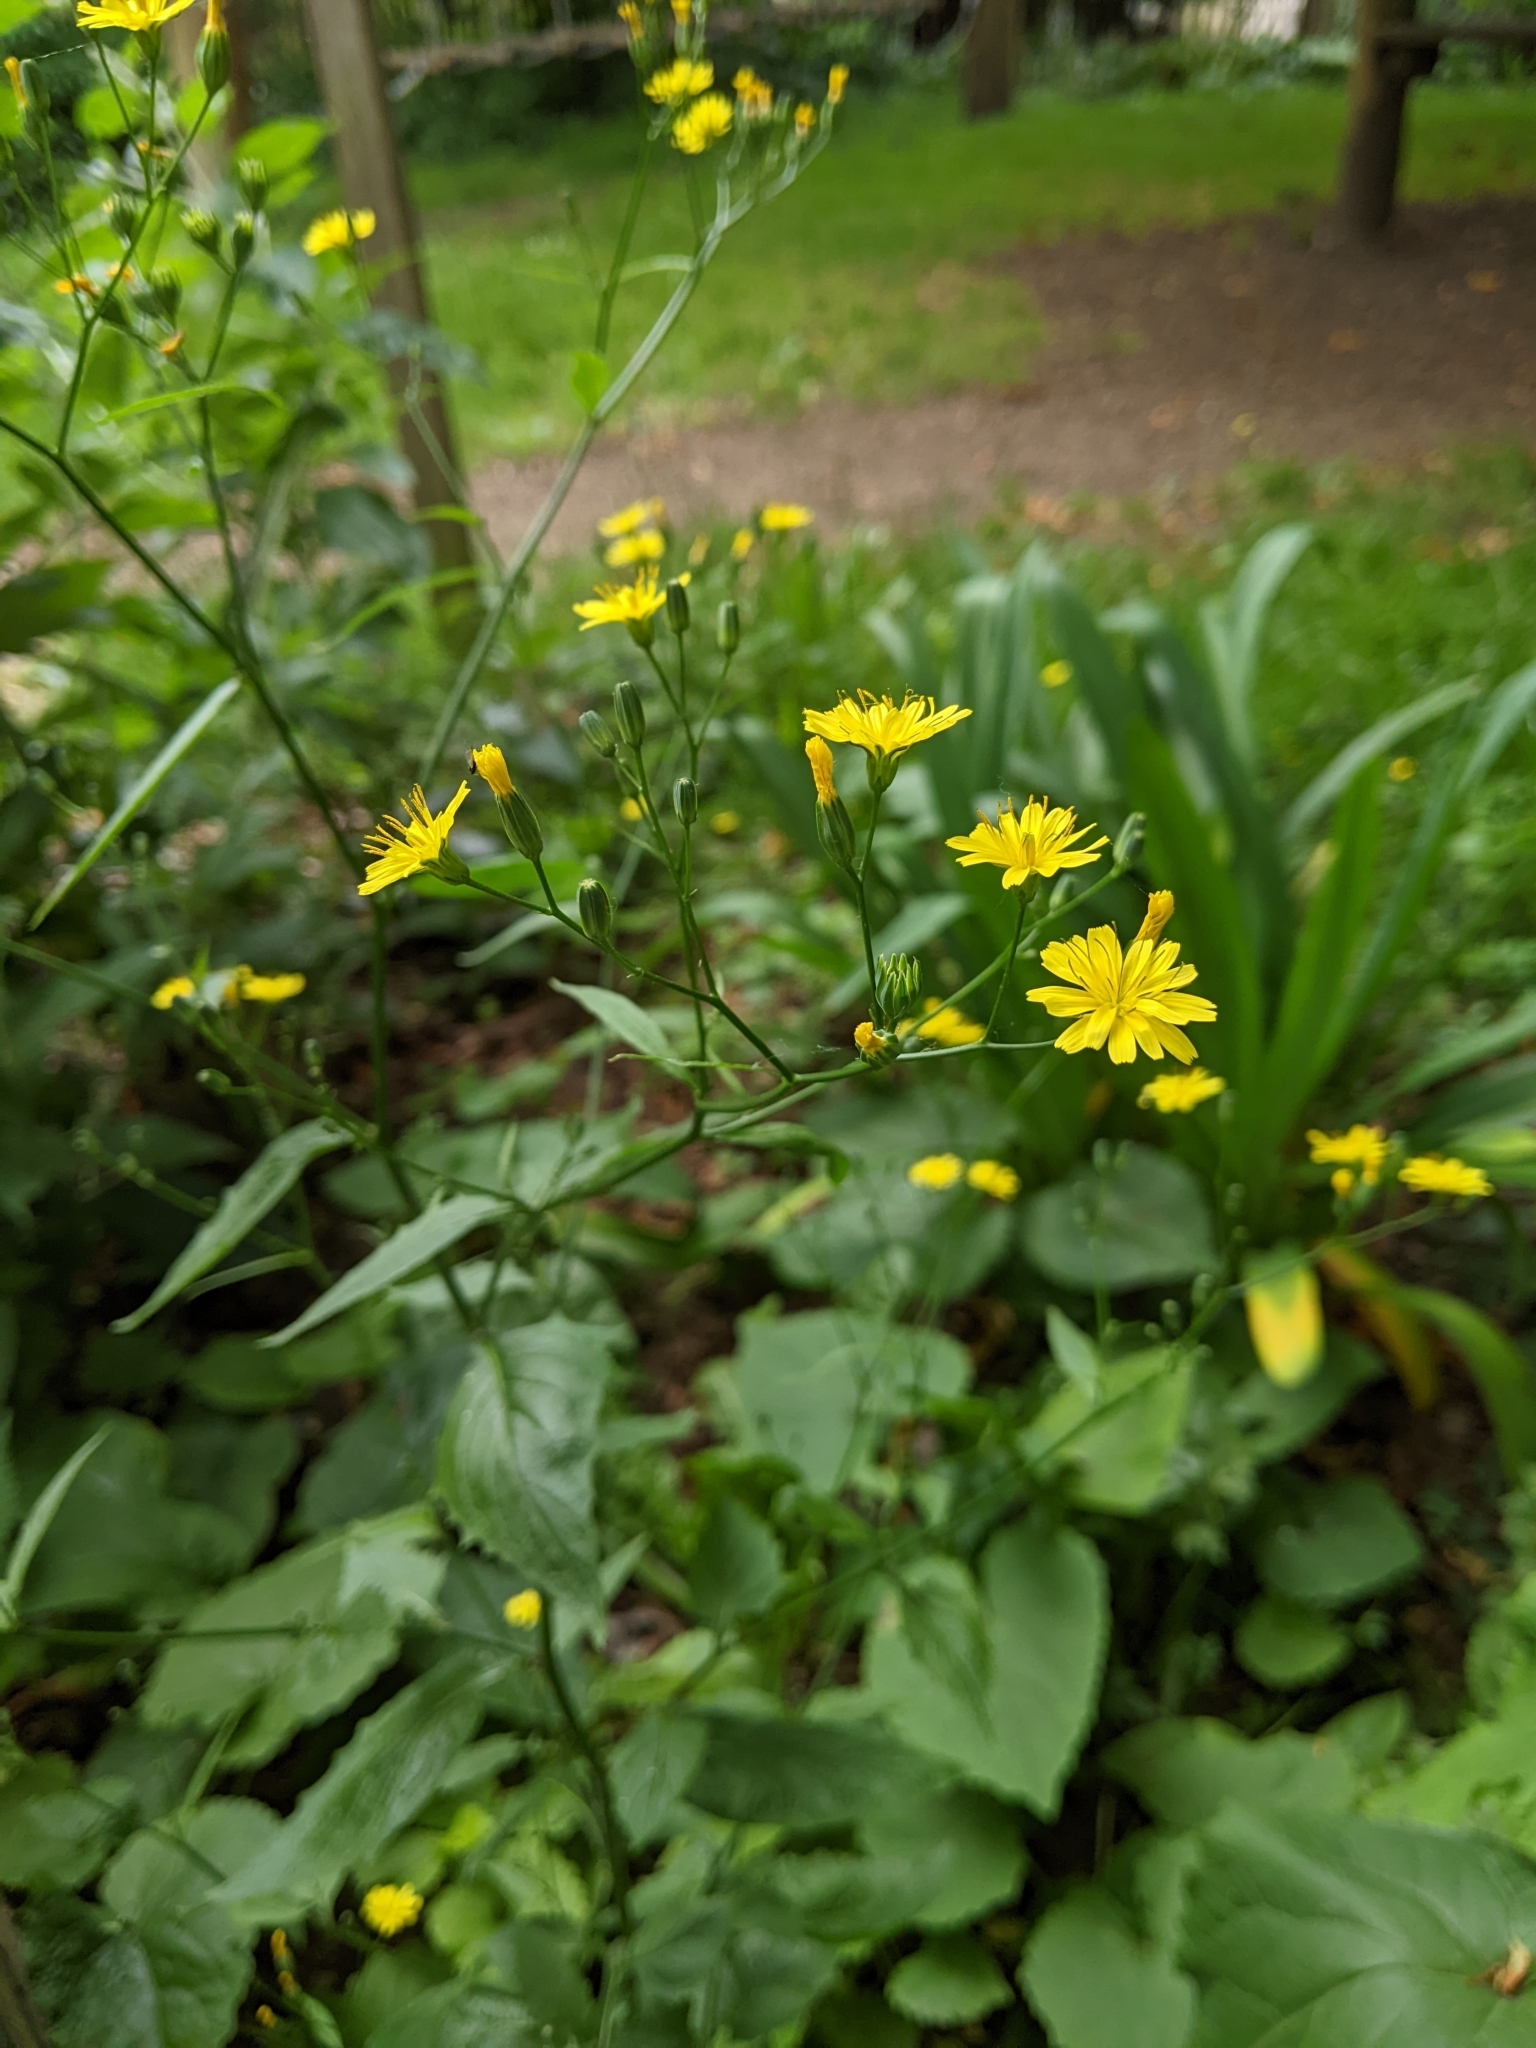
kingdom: Plantae
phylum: Tracheophyta
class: Magnoliopsida
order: Asterales
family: Asteraceae
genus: Lapsana
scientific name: Lapsana communis
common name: Nipplewort
